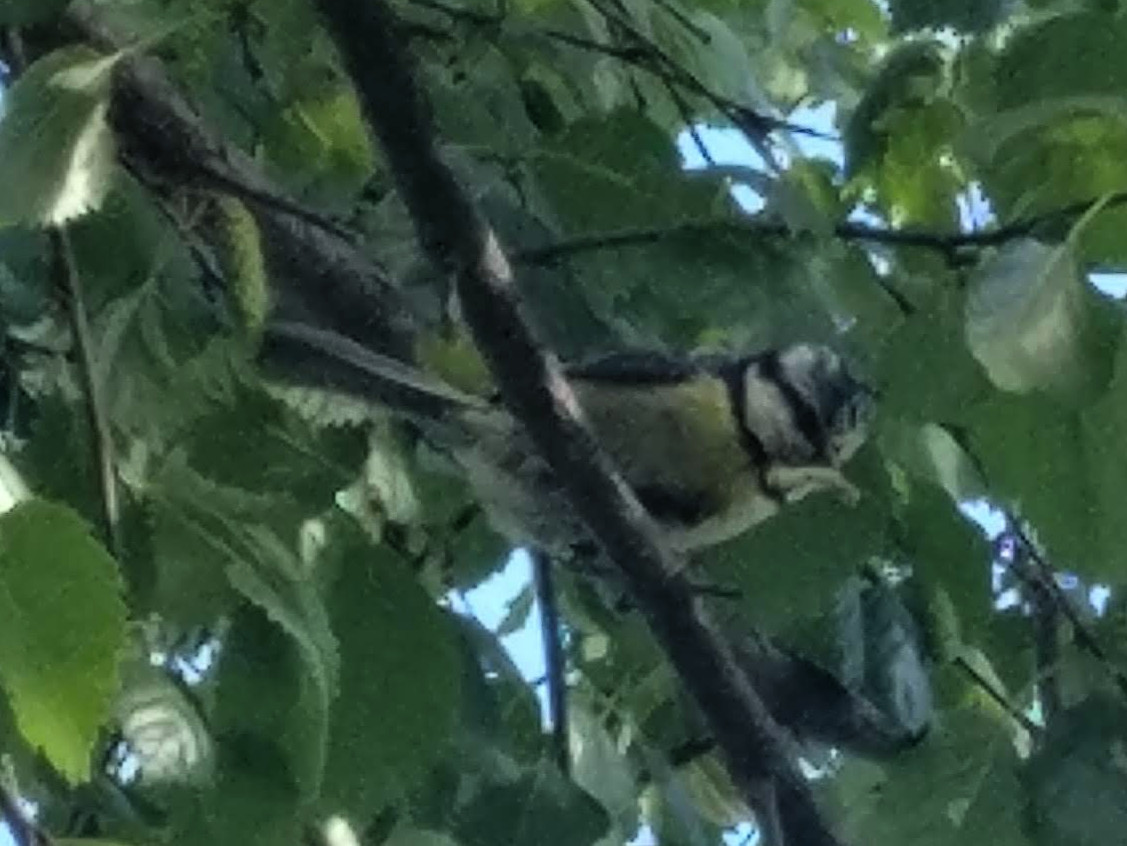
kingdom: Animalia
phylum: Chordata
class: Aves
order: Passeriformes
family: Paridae
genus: Cyanistes
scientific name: Cyanistes caeruleus
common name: Eurasian blue tit
